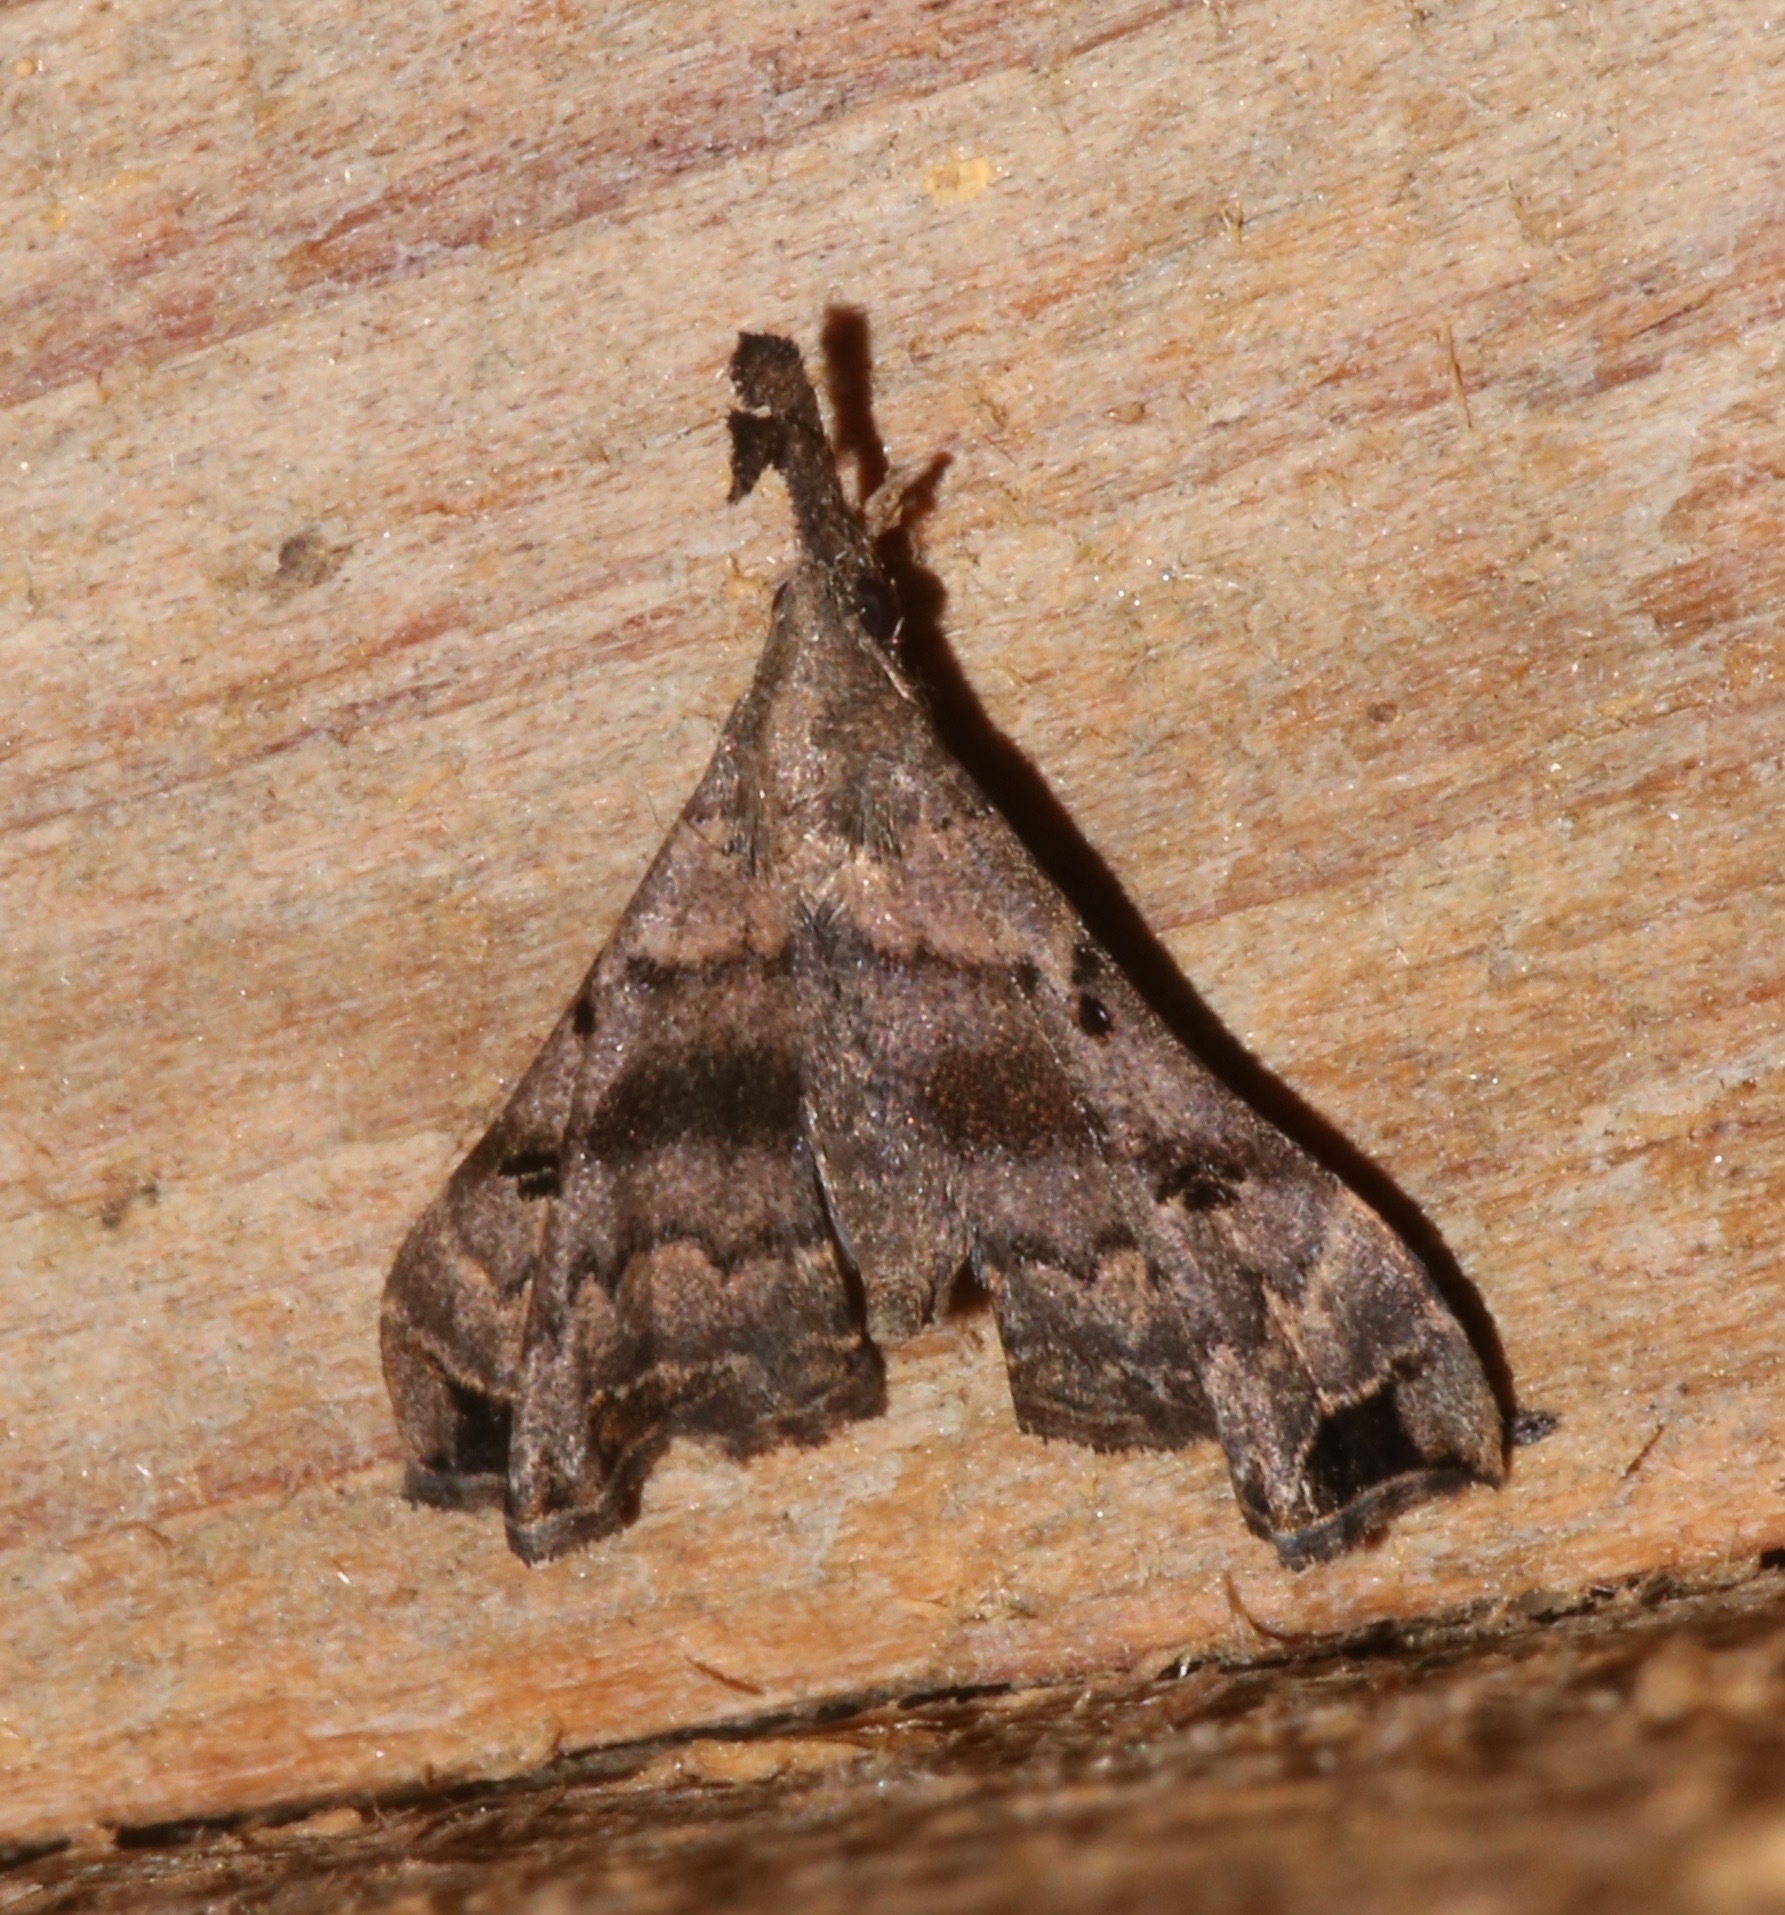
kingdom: Animalia
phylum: Arthropoda
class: Insecta
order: Lepidoptera
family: Erebidae
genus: Palthis
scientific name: Palthis asopialis
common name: Faint-spotted palthis moth
